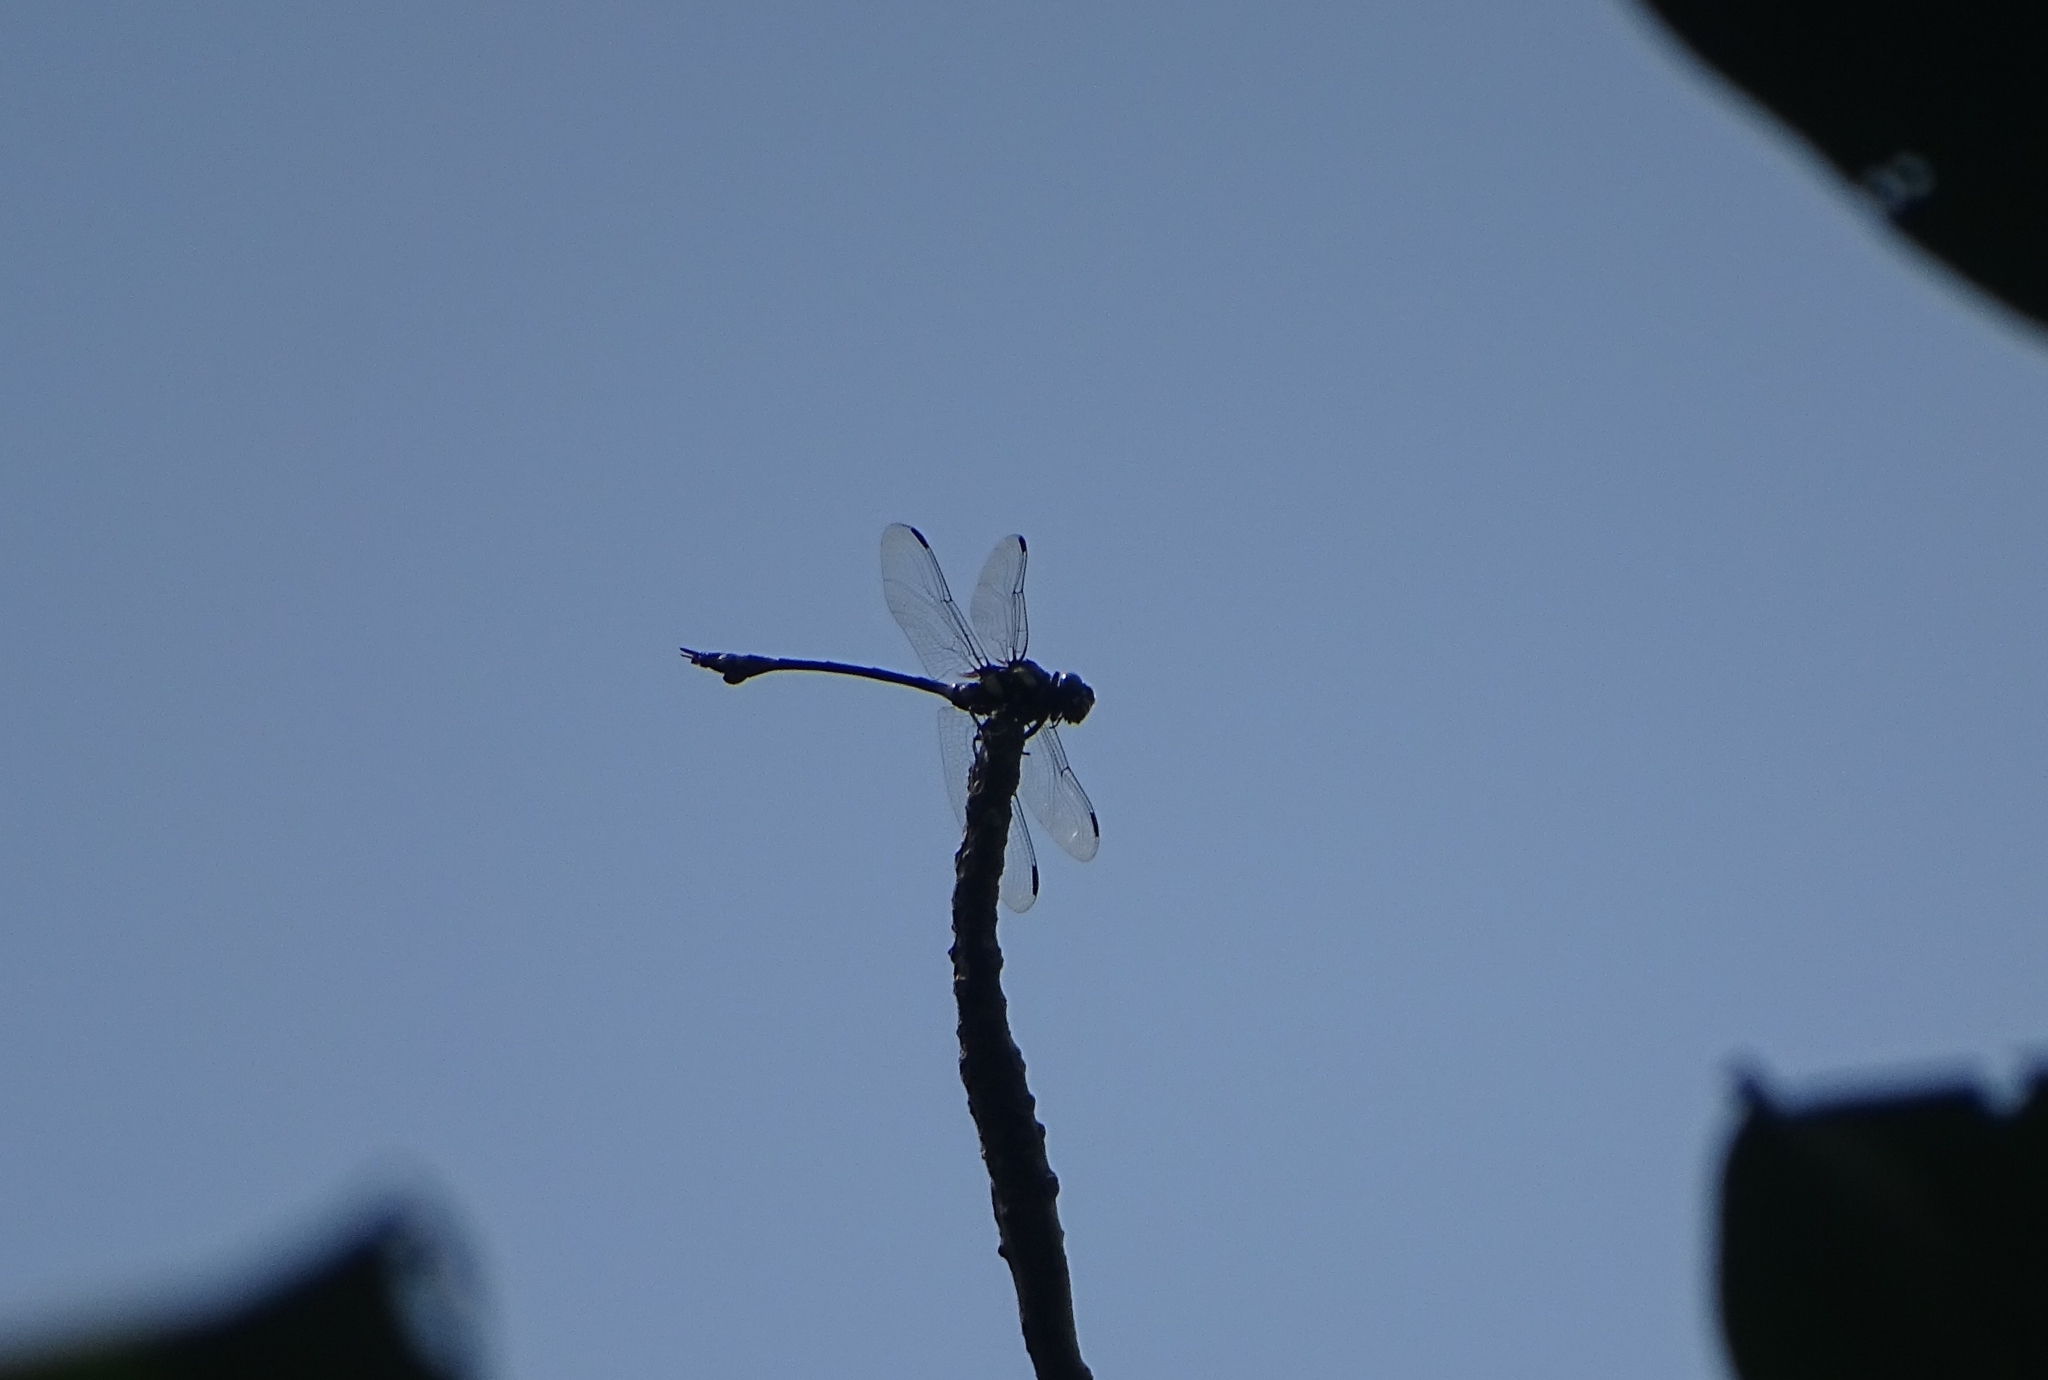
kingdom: Animalia
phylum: Arthropoda
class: Insecta
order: Odonata
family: Gomphidae
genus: Ictinogomphus
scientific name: Ictinogomphus rapax
